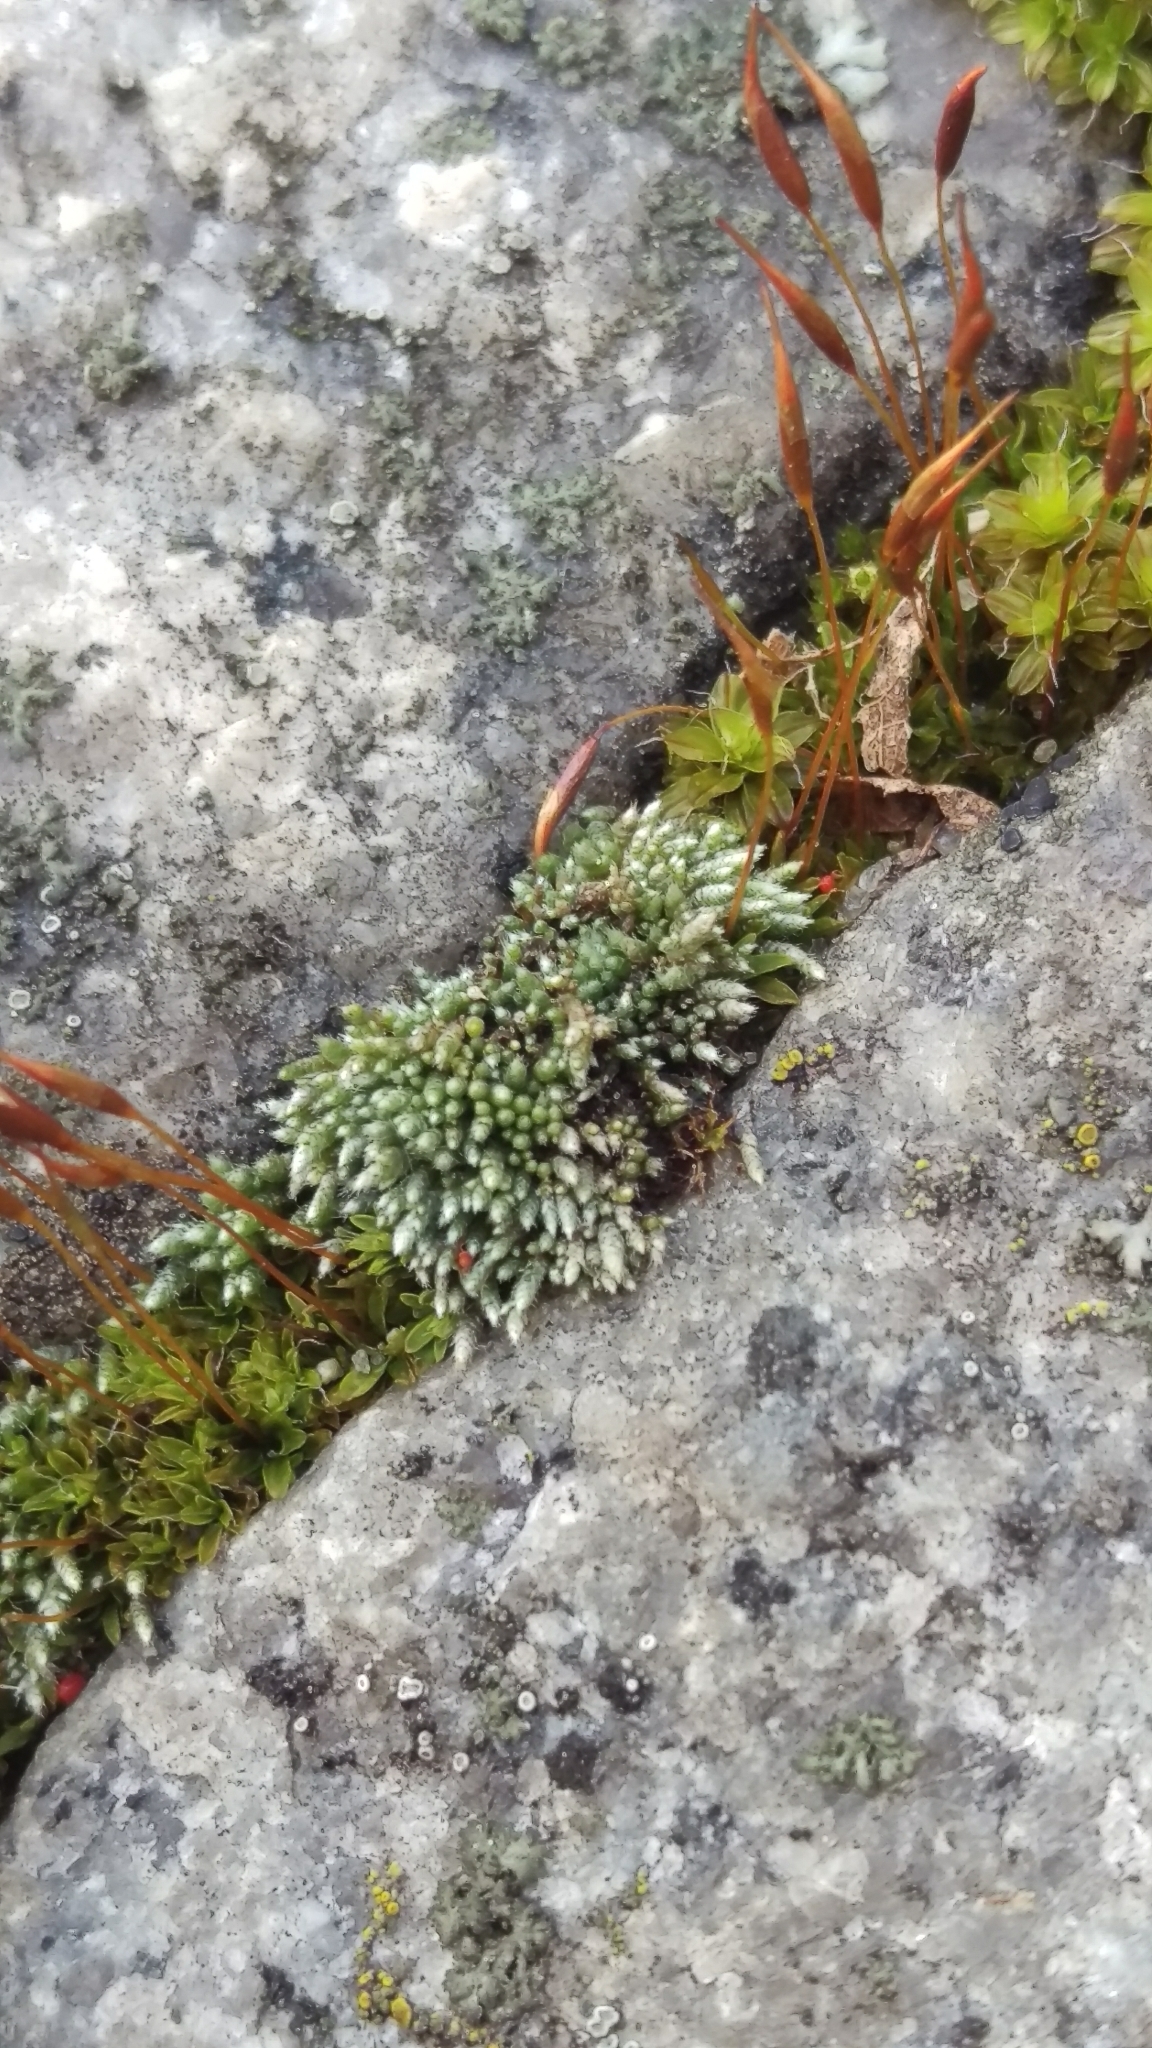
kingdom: Plantae
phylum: Bryophyta
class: Bryopsida
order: Bryales
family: Bryaceae
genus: Bryum
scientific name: Bryum argenteum
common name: Silver-moss
